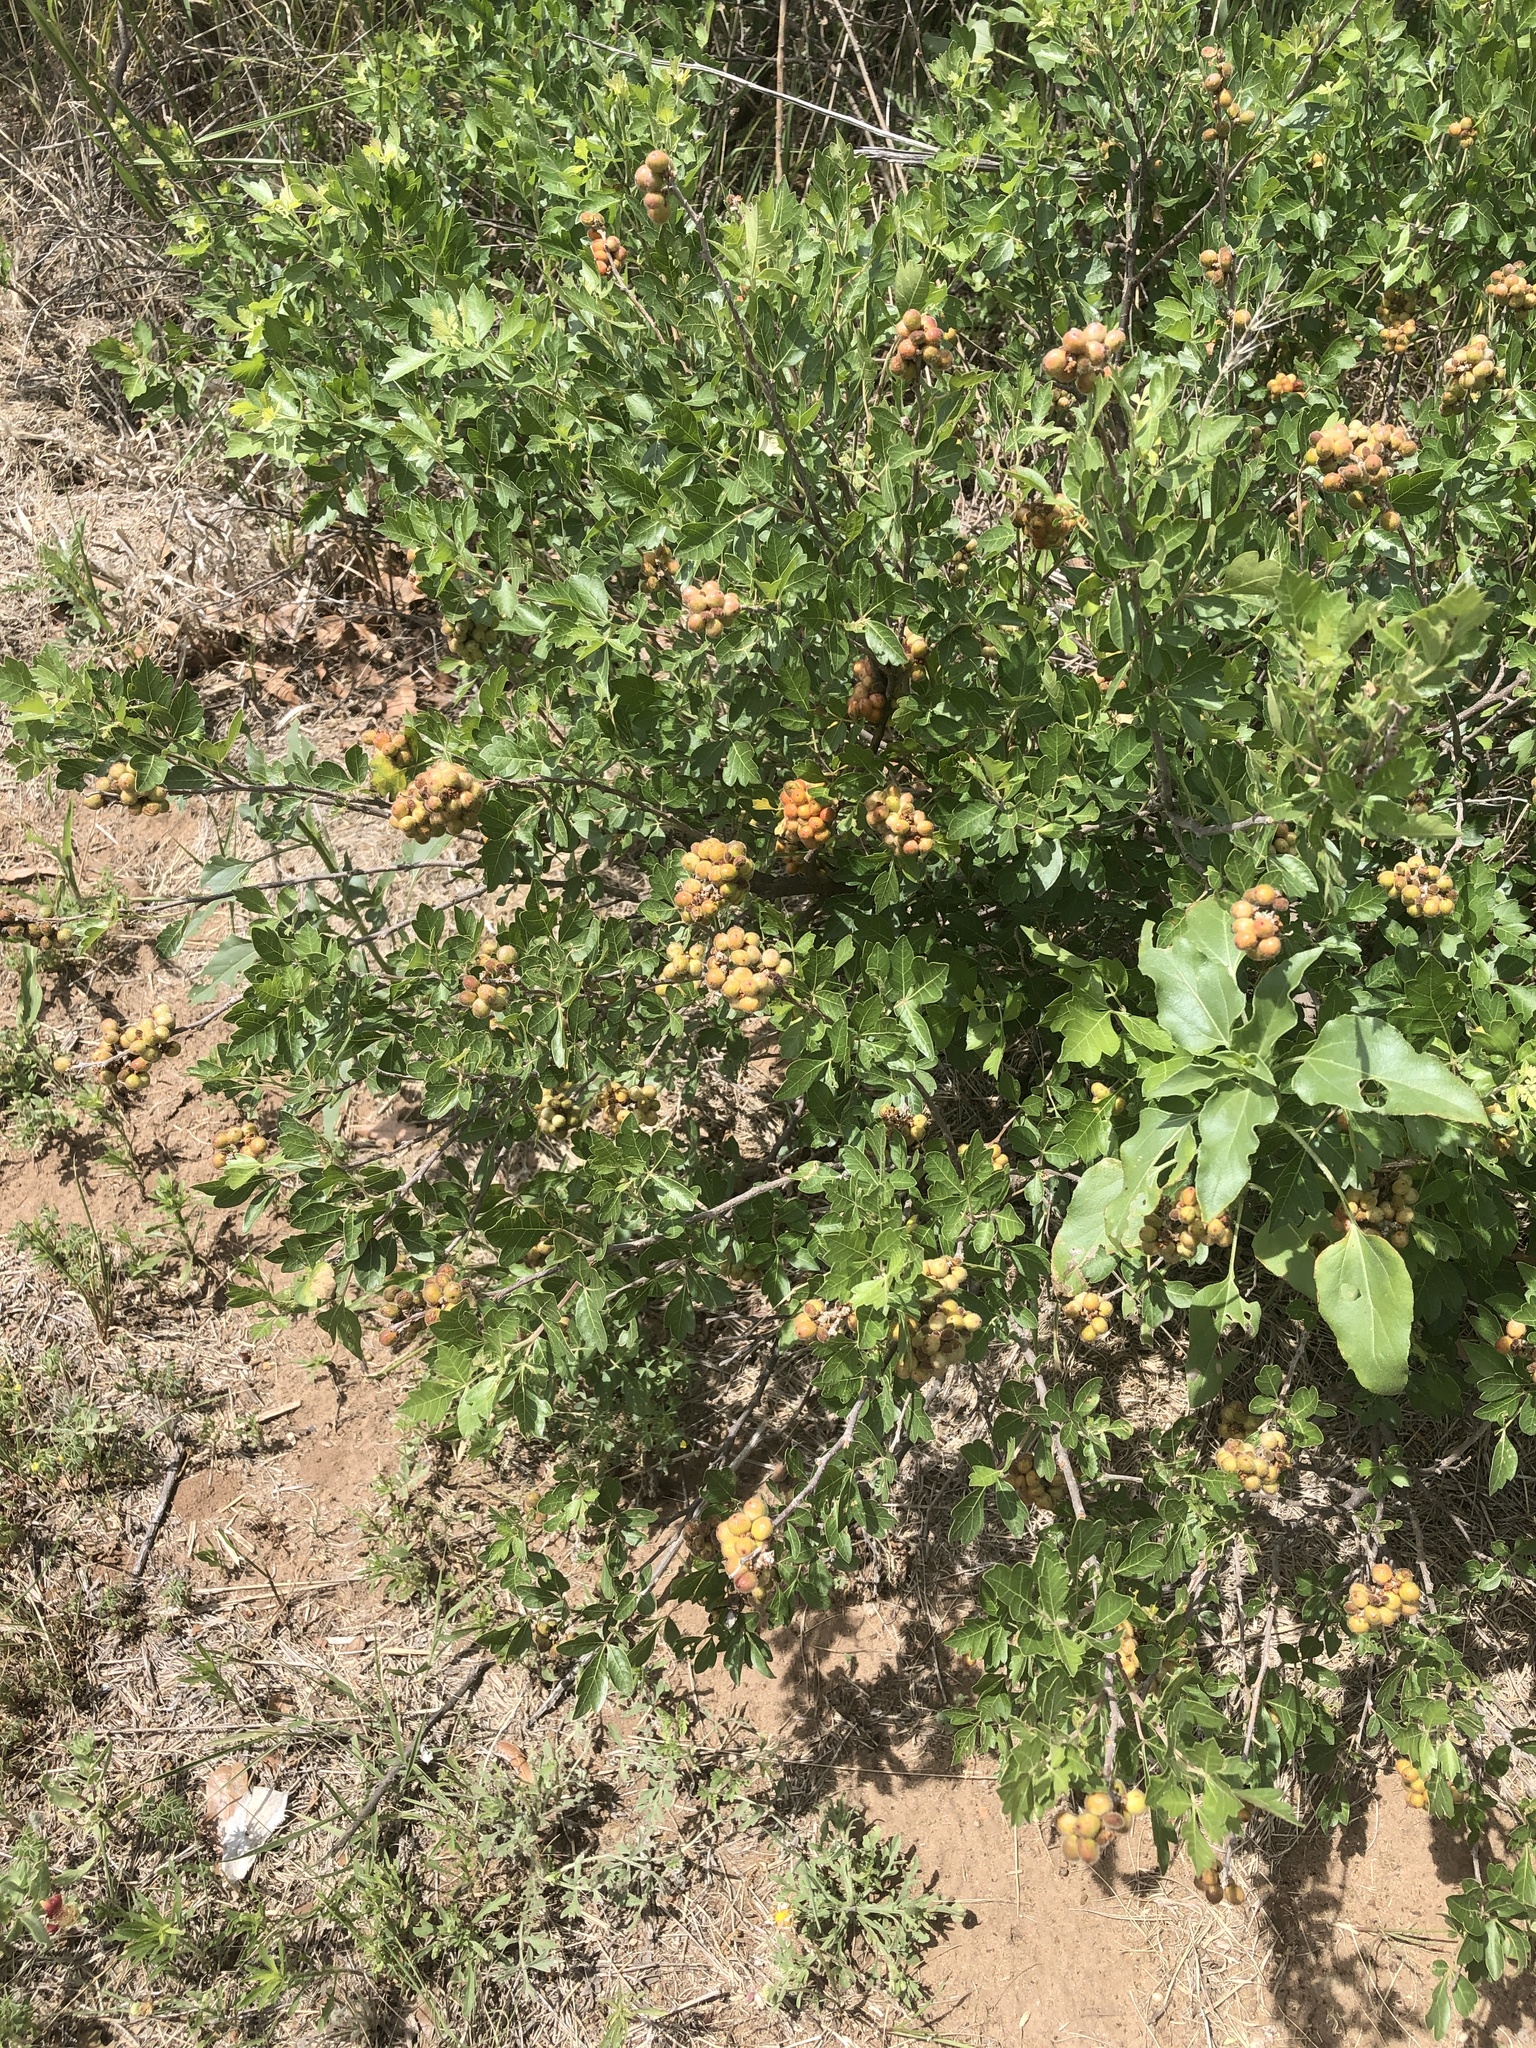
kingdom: Plantae
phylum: Tracheophyta
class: Magnoliopsida
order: Sapindales
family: Anacardiaceae
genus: Rhus
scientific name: Rhus aromatica
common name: Aromatic sumac
